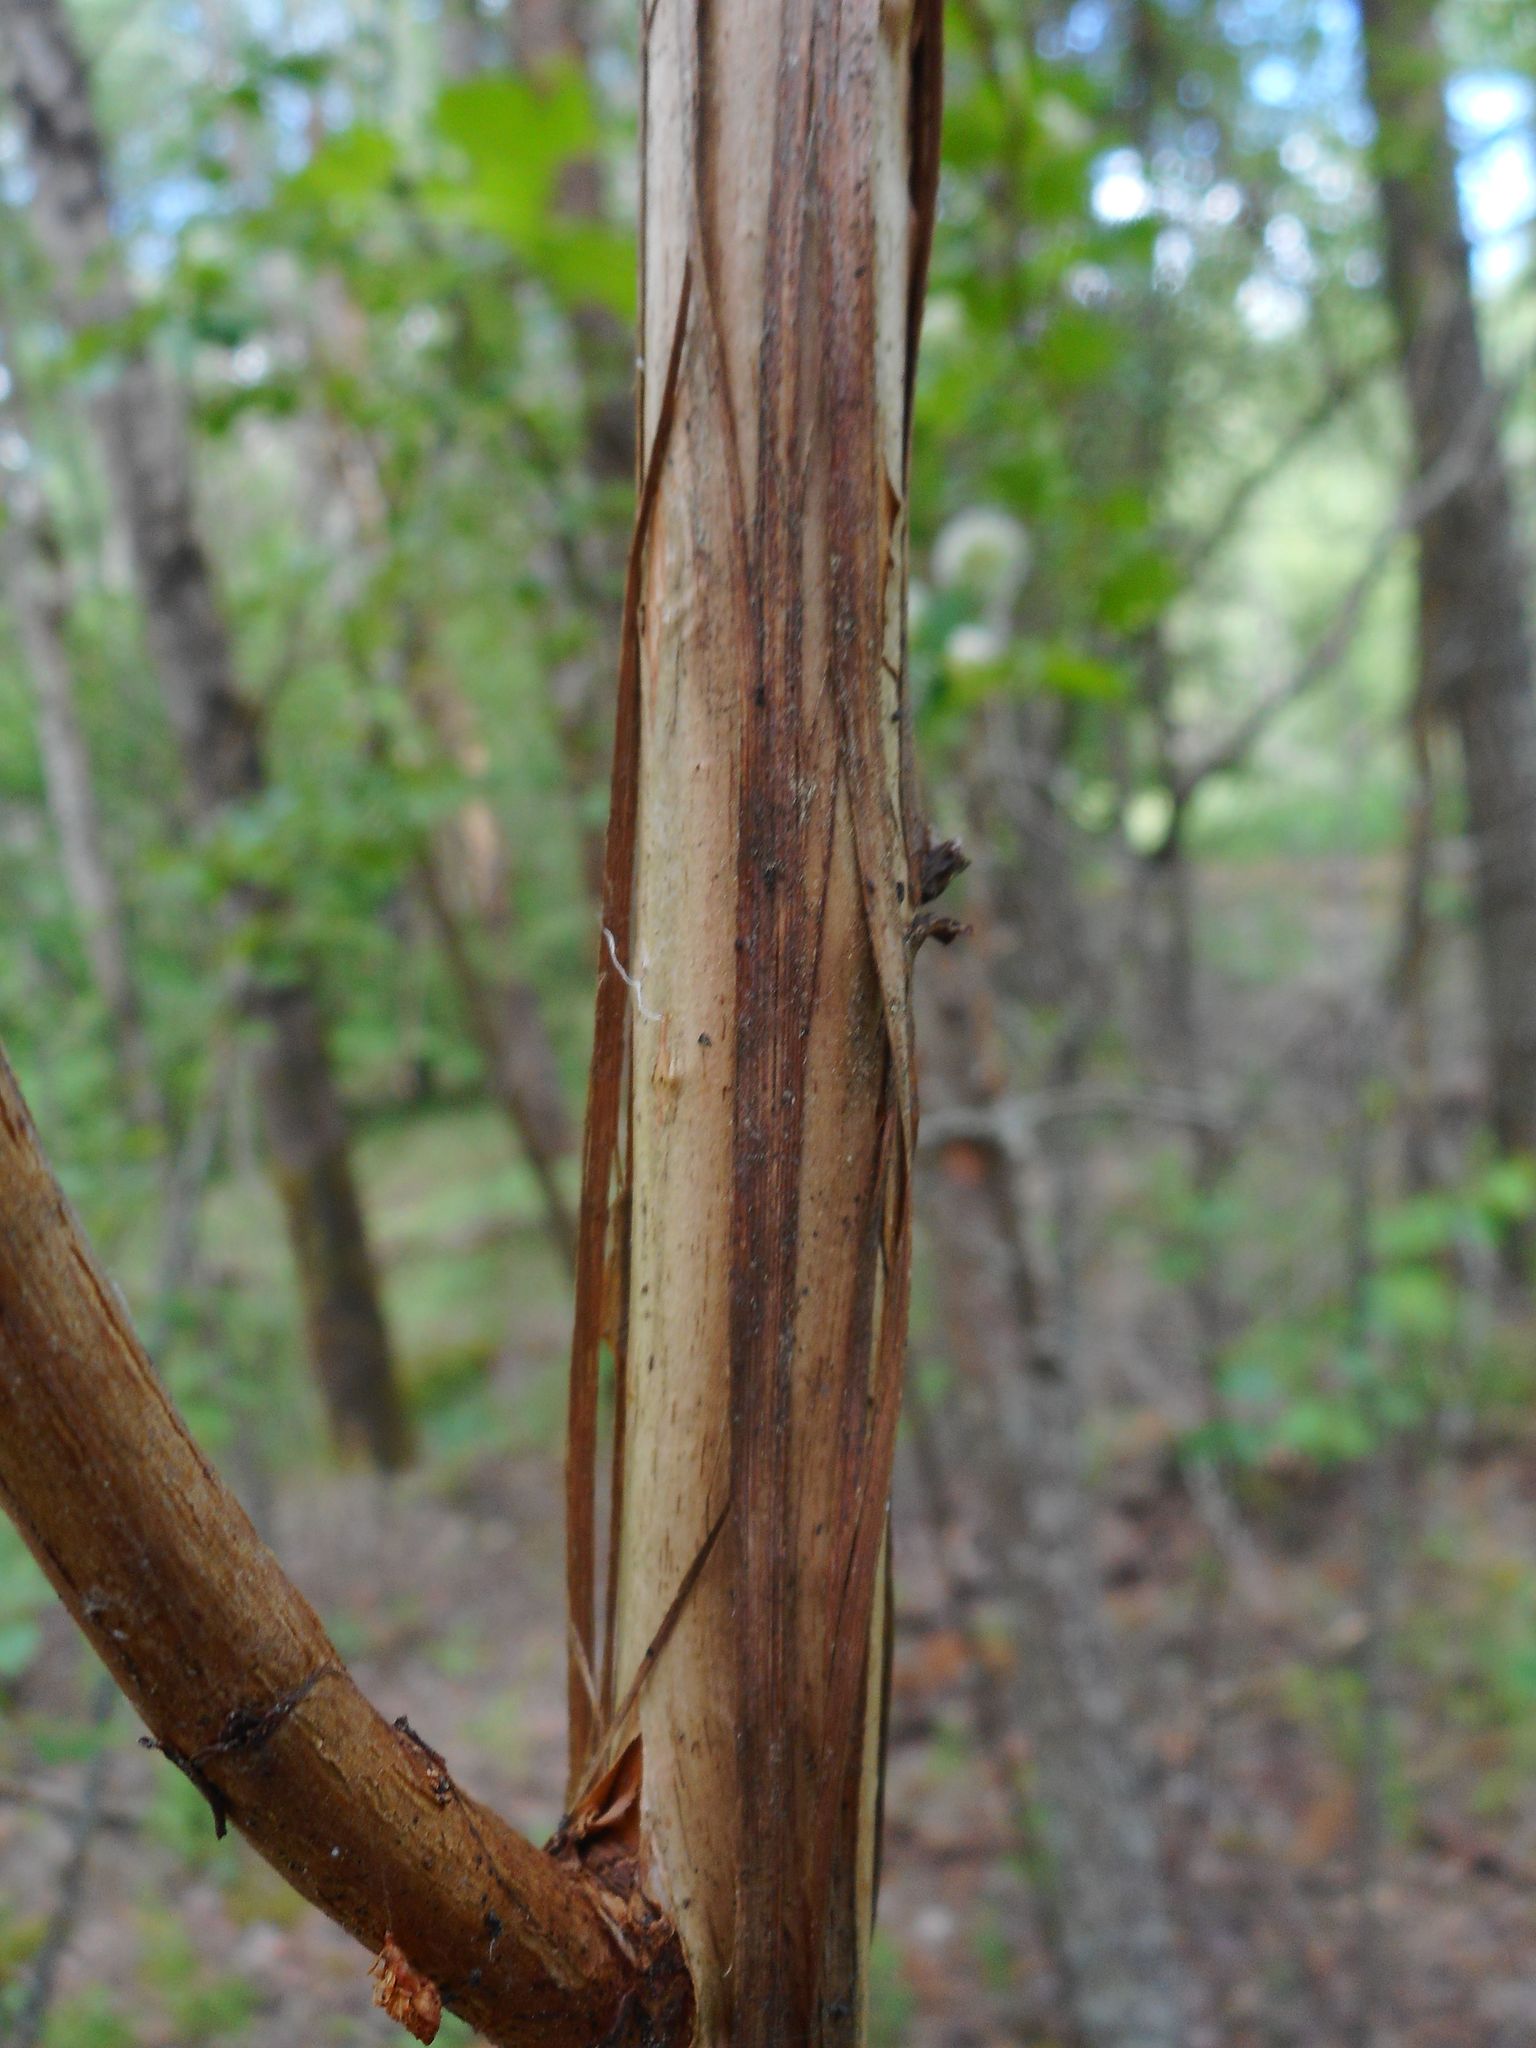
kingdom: Plantae
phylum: Tracheophyta
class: Magnoliopsida
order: Rosales
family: Rosaceae
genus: Physocarpus
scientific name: Physocarpus opulifolius
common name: Ninebark
